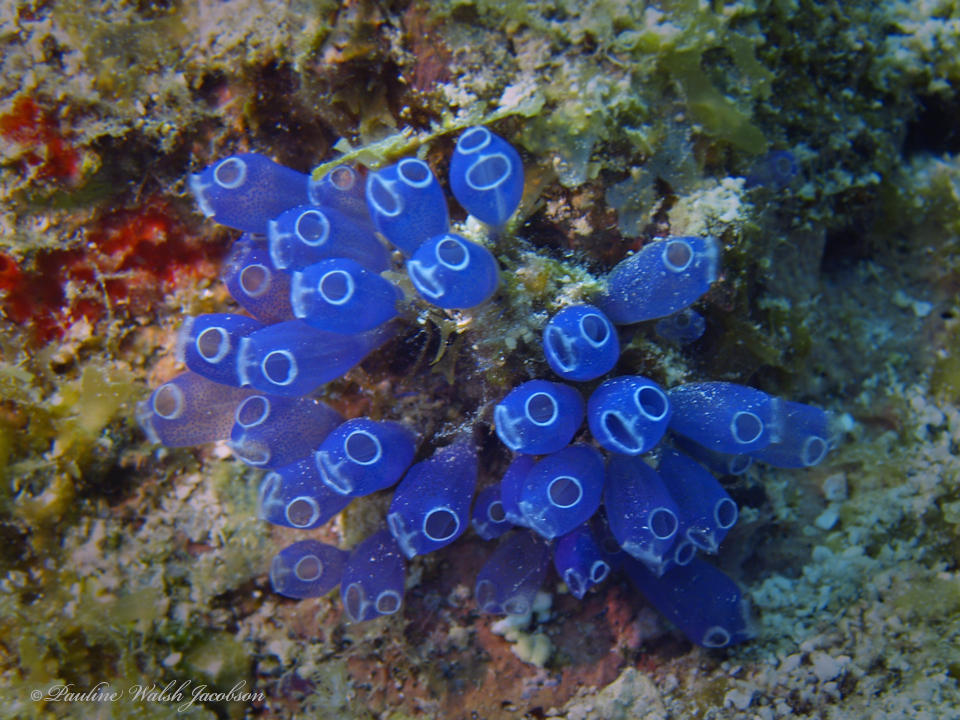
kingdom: Animalia
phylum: Chordata
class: Ascidiacea
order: Aplousobranchia
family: Clavelinidae
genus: Clavelina
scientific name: Clavelina puertosecensis
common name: Blue bell tunicate
